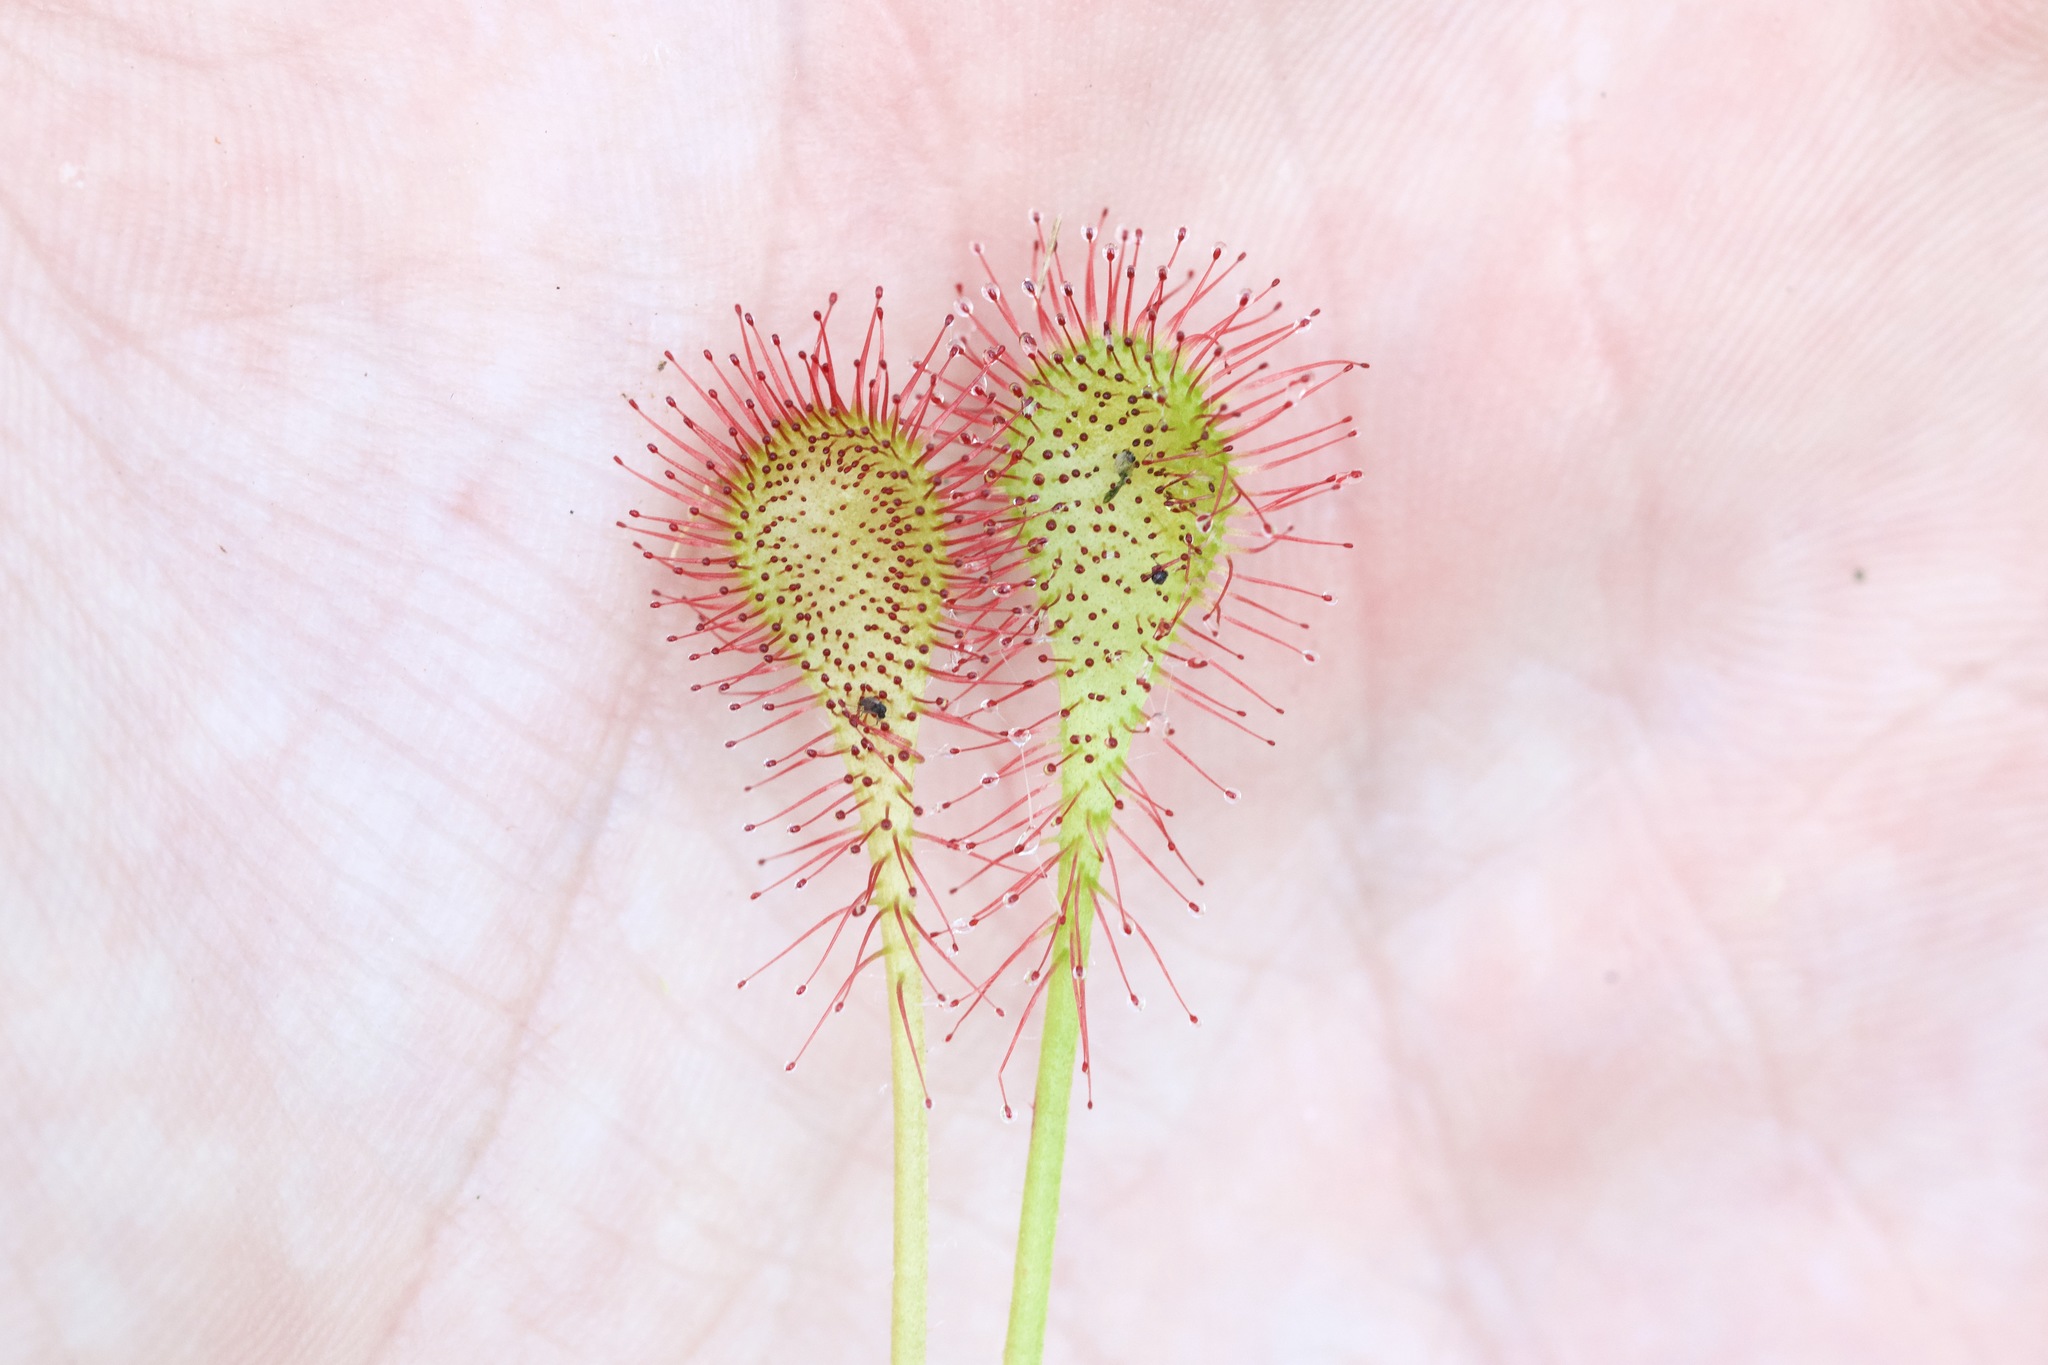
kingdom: Plantae
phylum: Tracheophyta
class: Magnoliopsida
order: Caryophyllales
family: Droseraceae
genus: Drosera
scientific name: Drosera eloisiana
